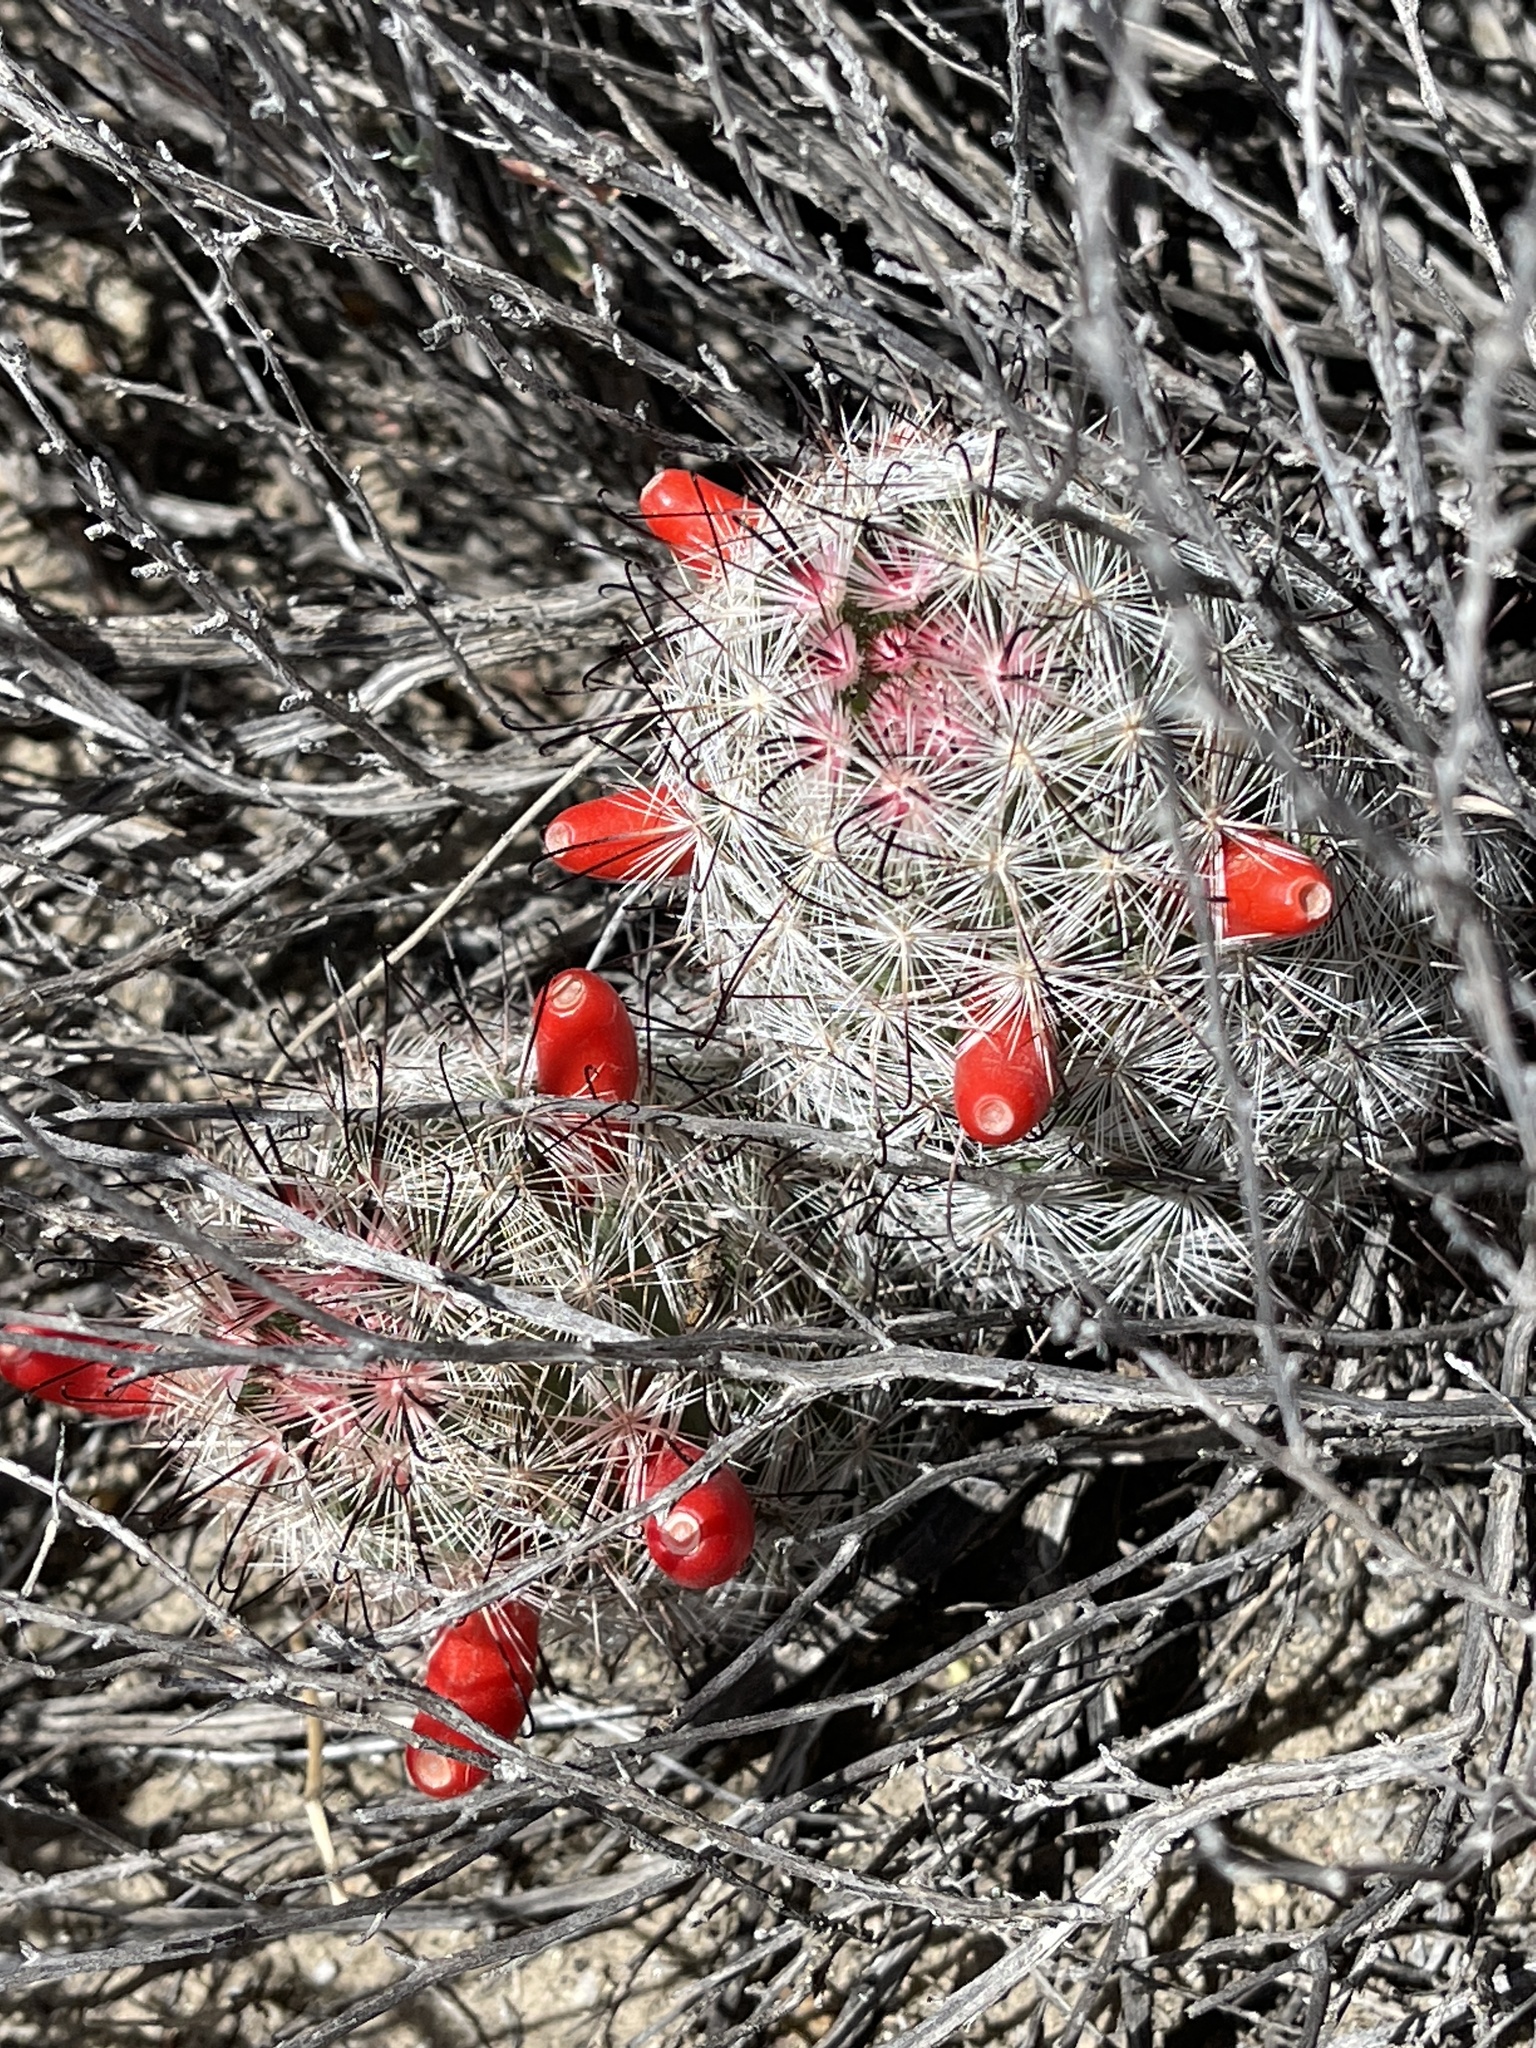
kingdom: Plantae
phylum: Tracheophyta
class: Magnoliopsida
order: Caryophyllales
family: Cactaceae
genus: Cochemiea
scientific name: Cochemiea tetrancistra
